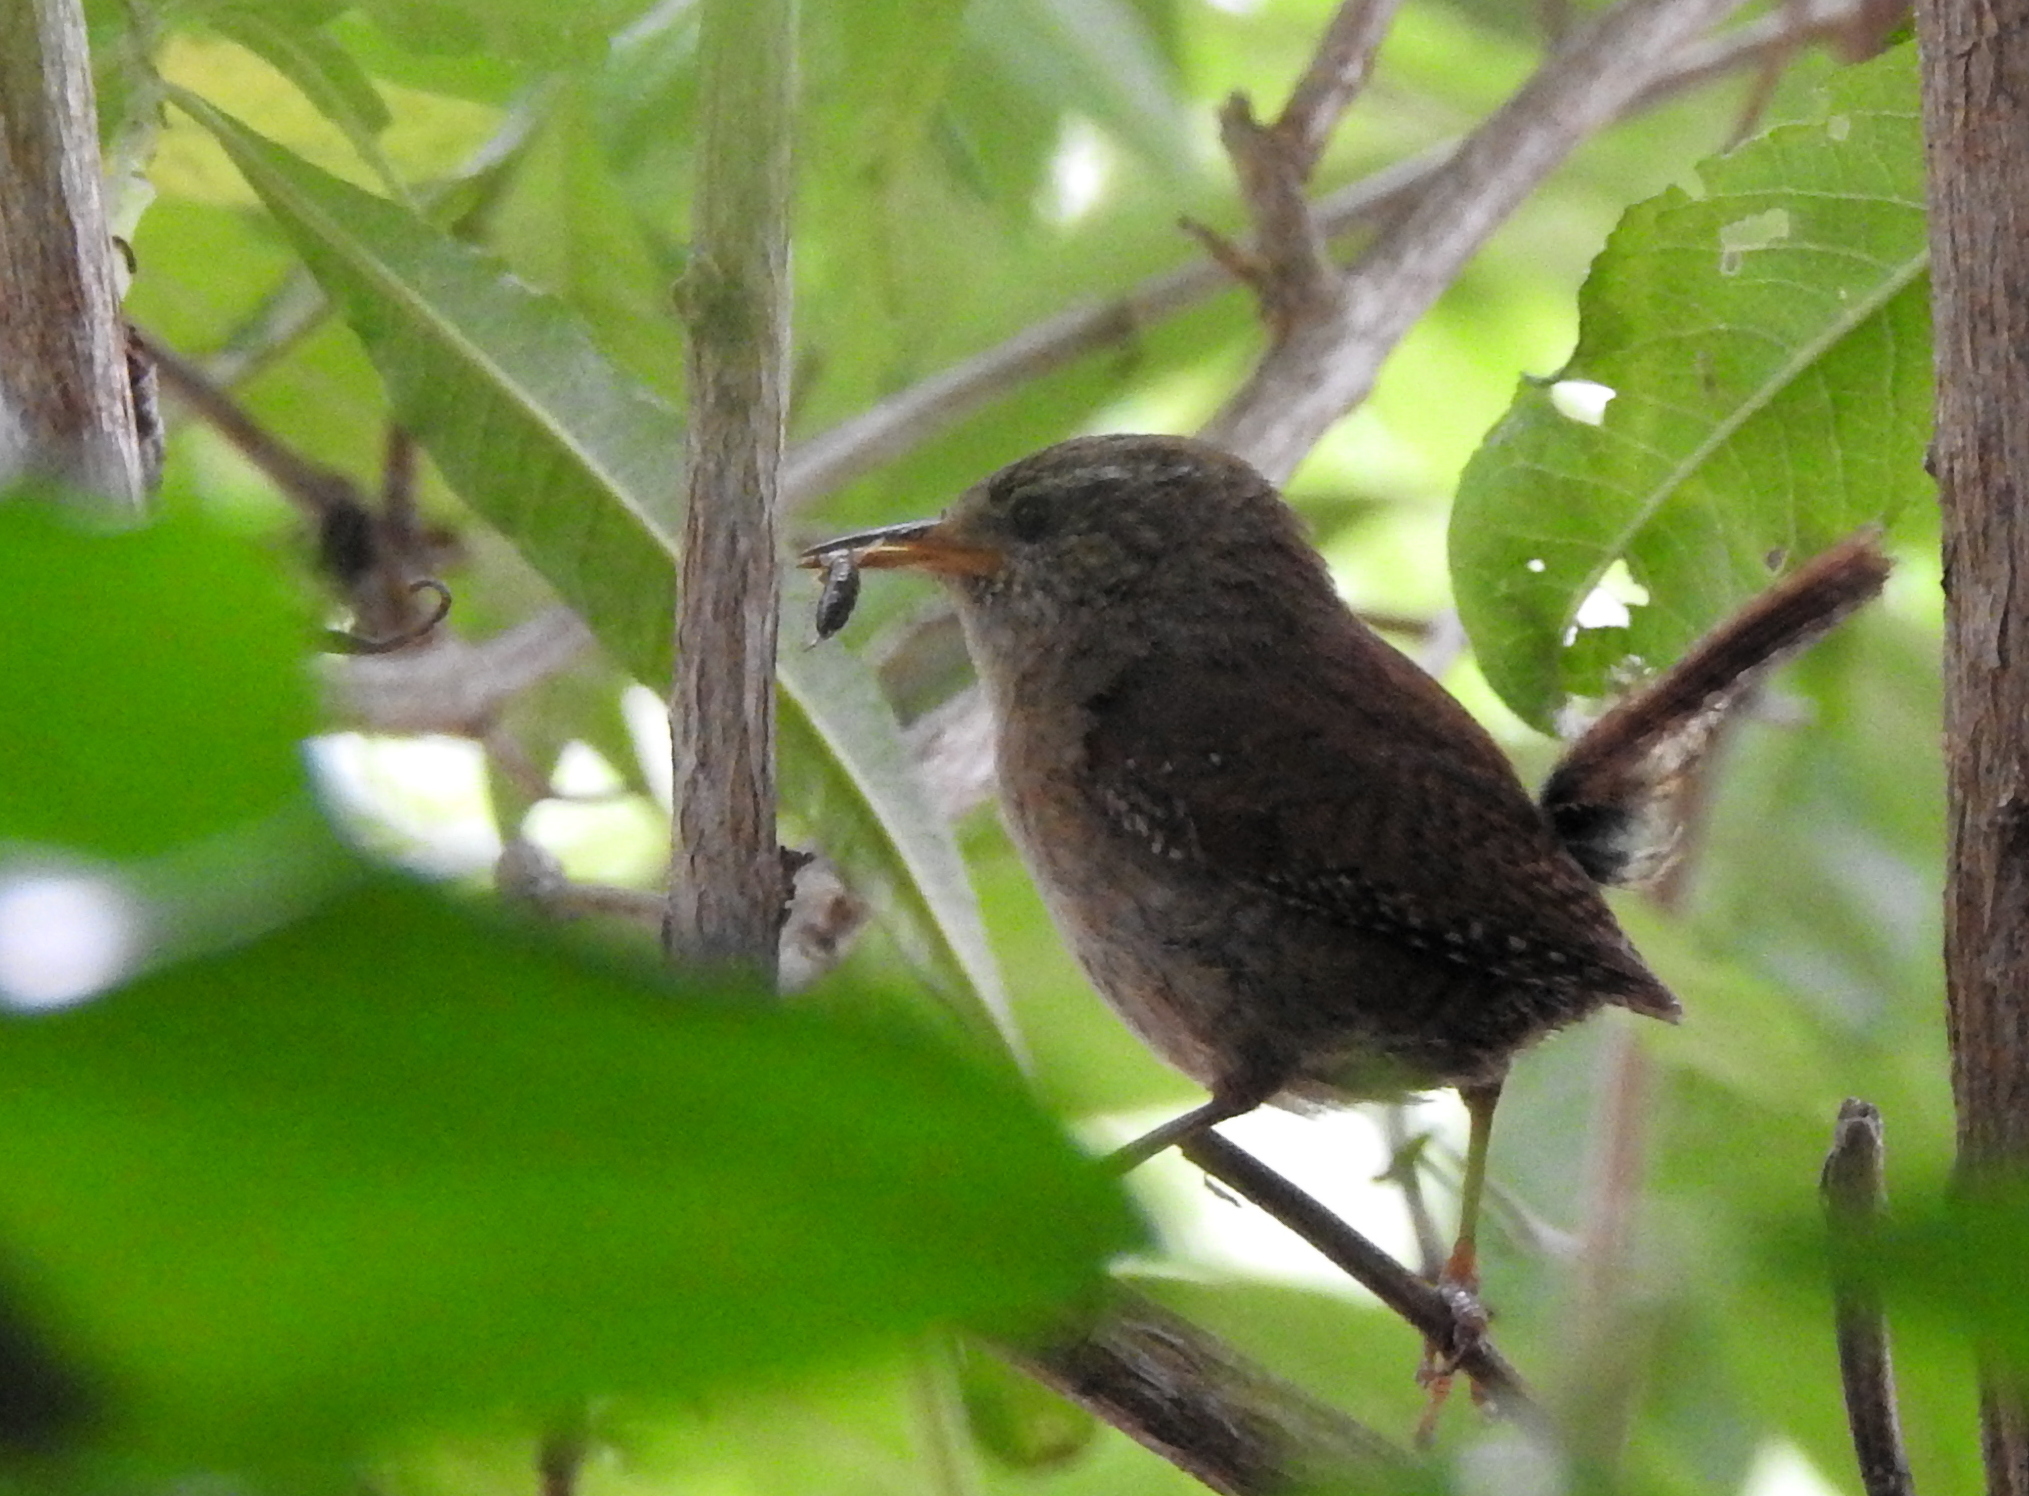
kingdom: Animalia
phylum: Chordata
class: Aves
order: Passeriformes
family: Troglodytidae
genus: Troglodytes
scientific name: Troglodytes troglodytes
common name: Eurasian wren
